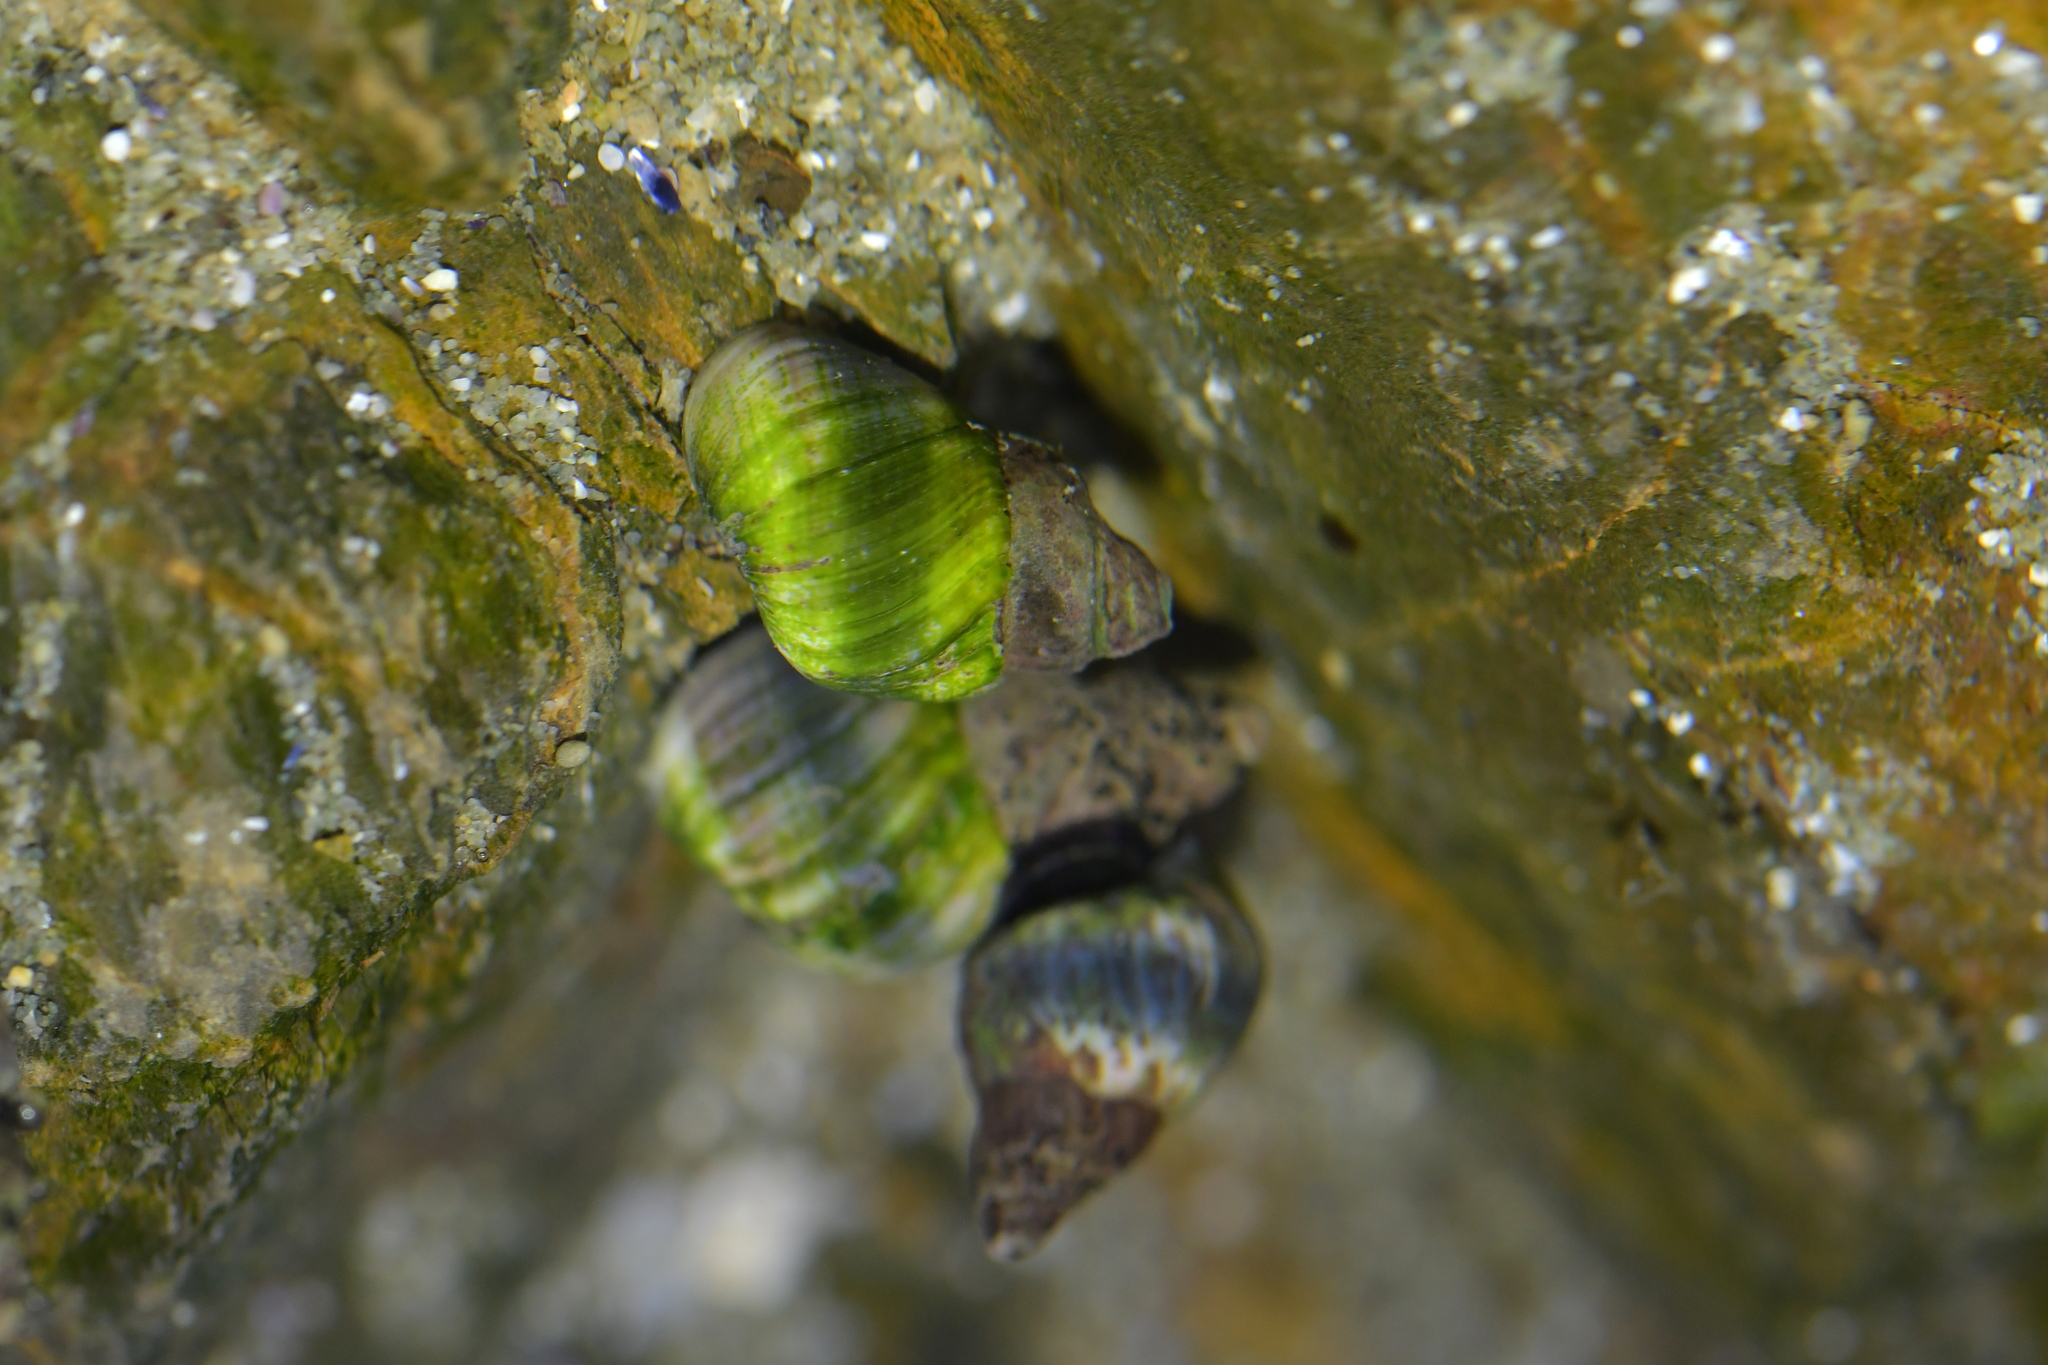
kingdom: Animalia
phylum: Mollusca
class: Gastropoda
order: Littorinimorpha
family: Littorinidae
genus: Austrolittorina
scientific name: Austrolittorina antipodum
